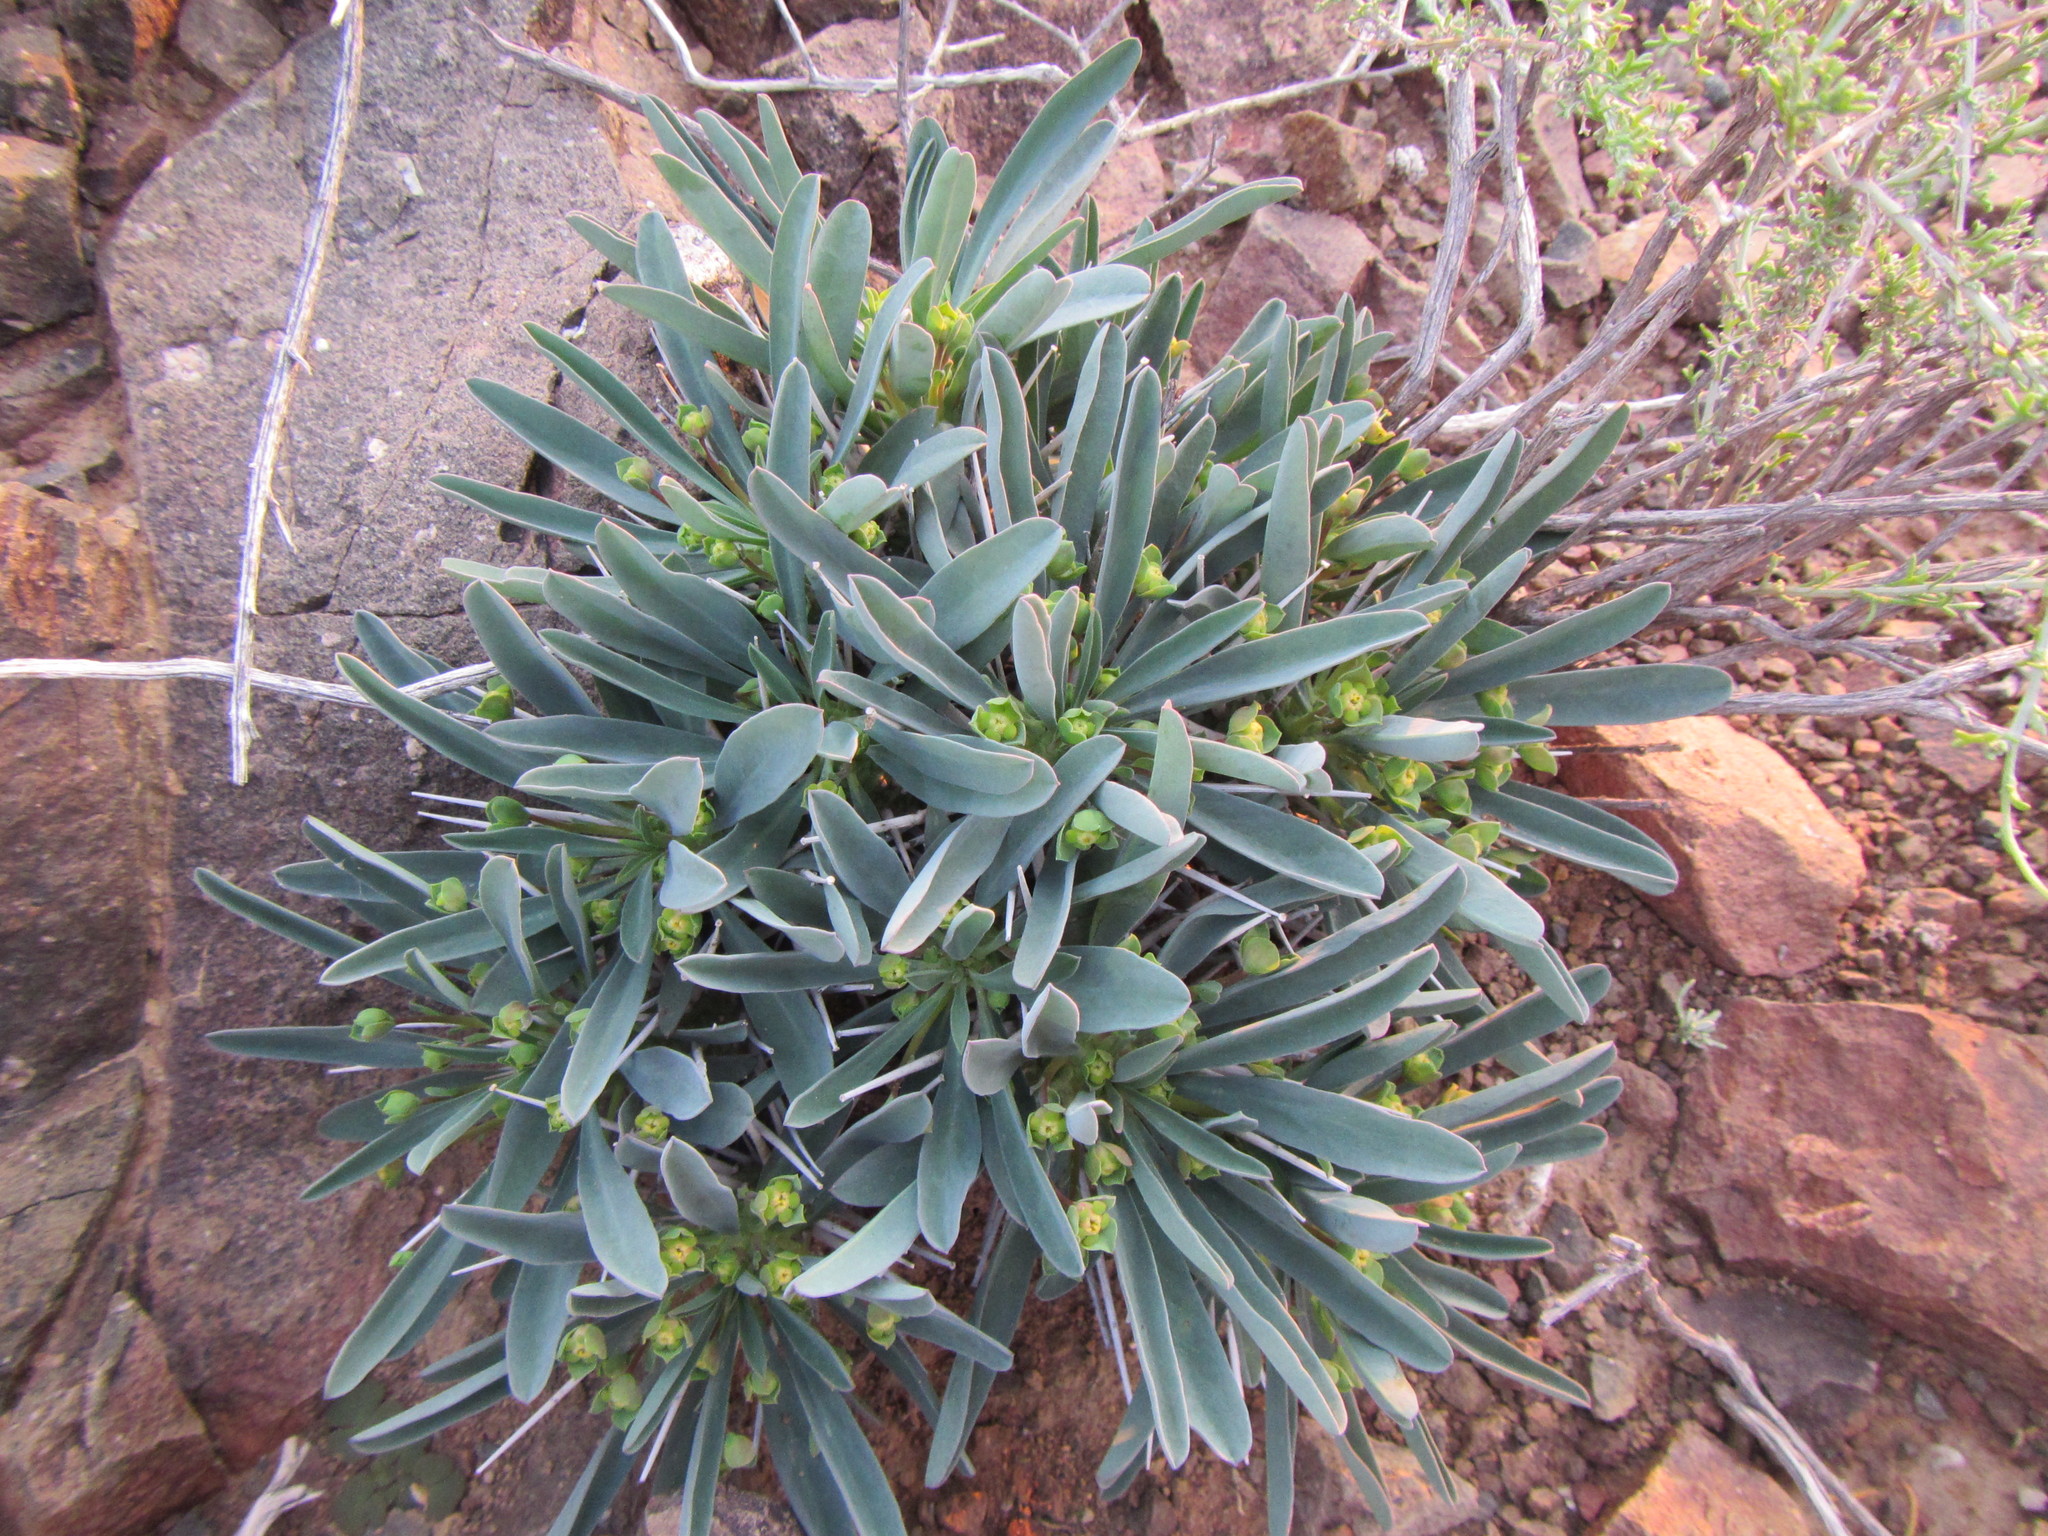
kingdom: Plantae
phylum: Tracheophyta
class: Magnoliopsida
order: Malpighiales
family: Euphorbiaceae
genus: Euphorbia
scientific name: Euphorbia loricata
